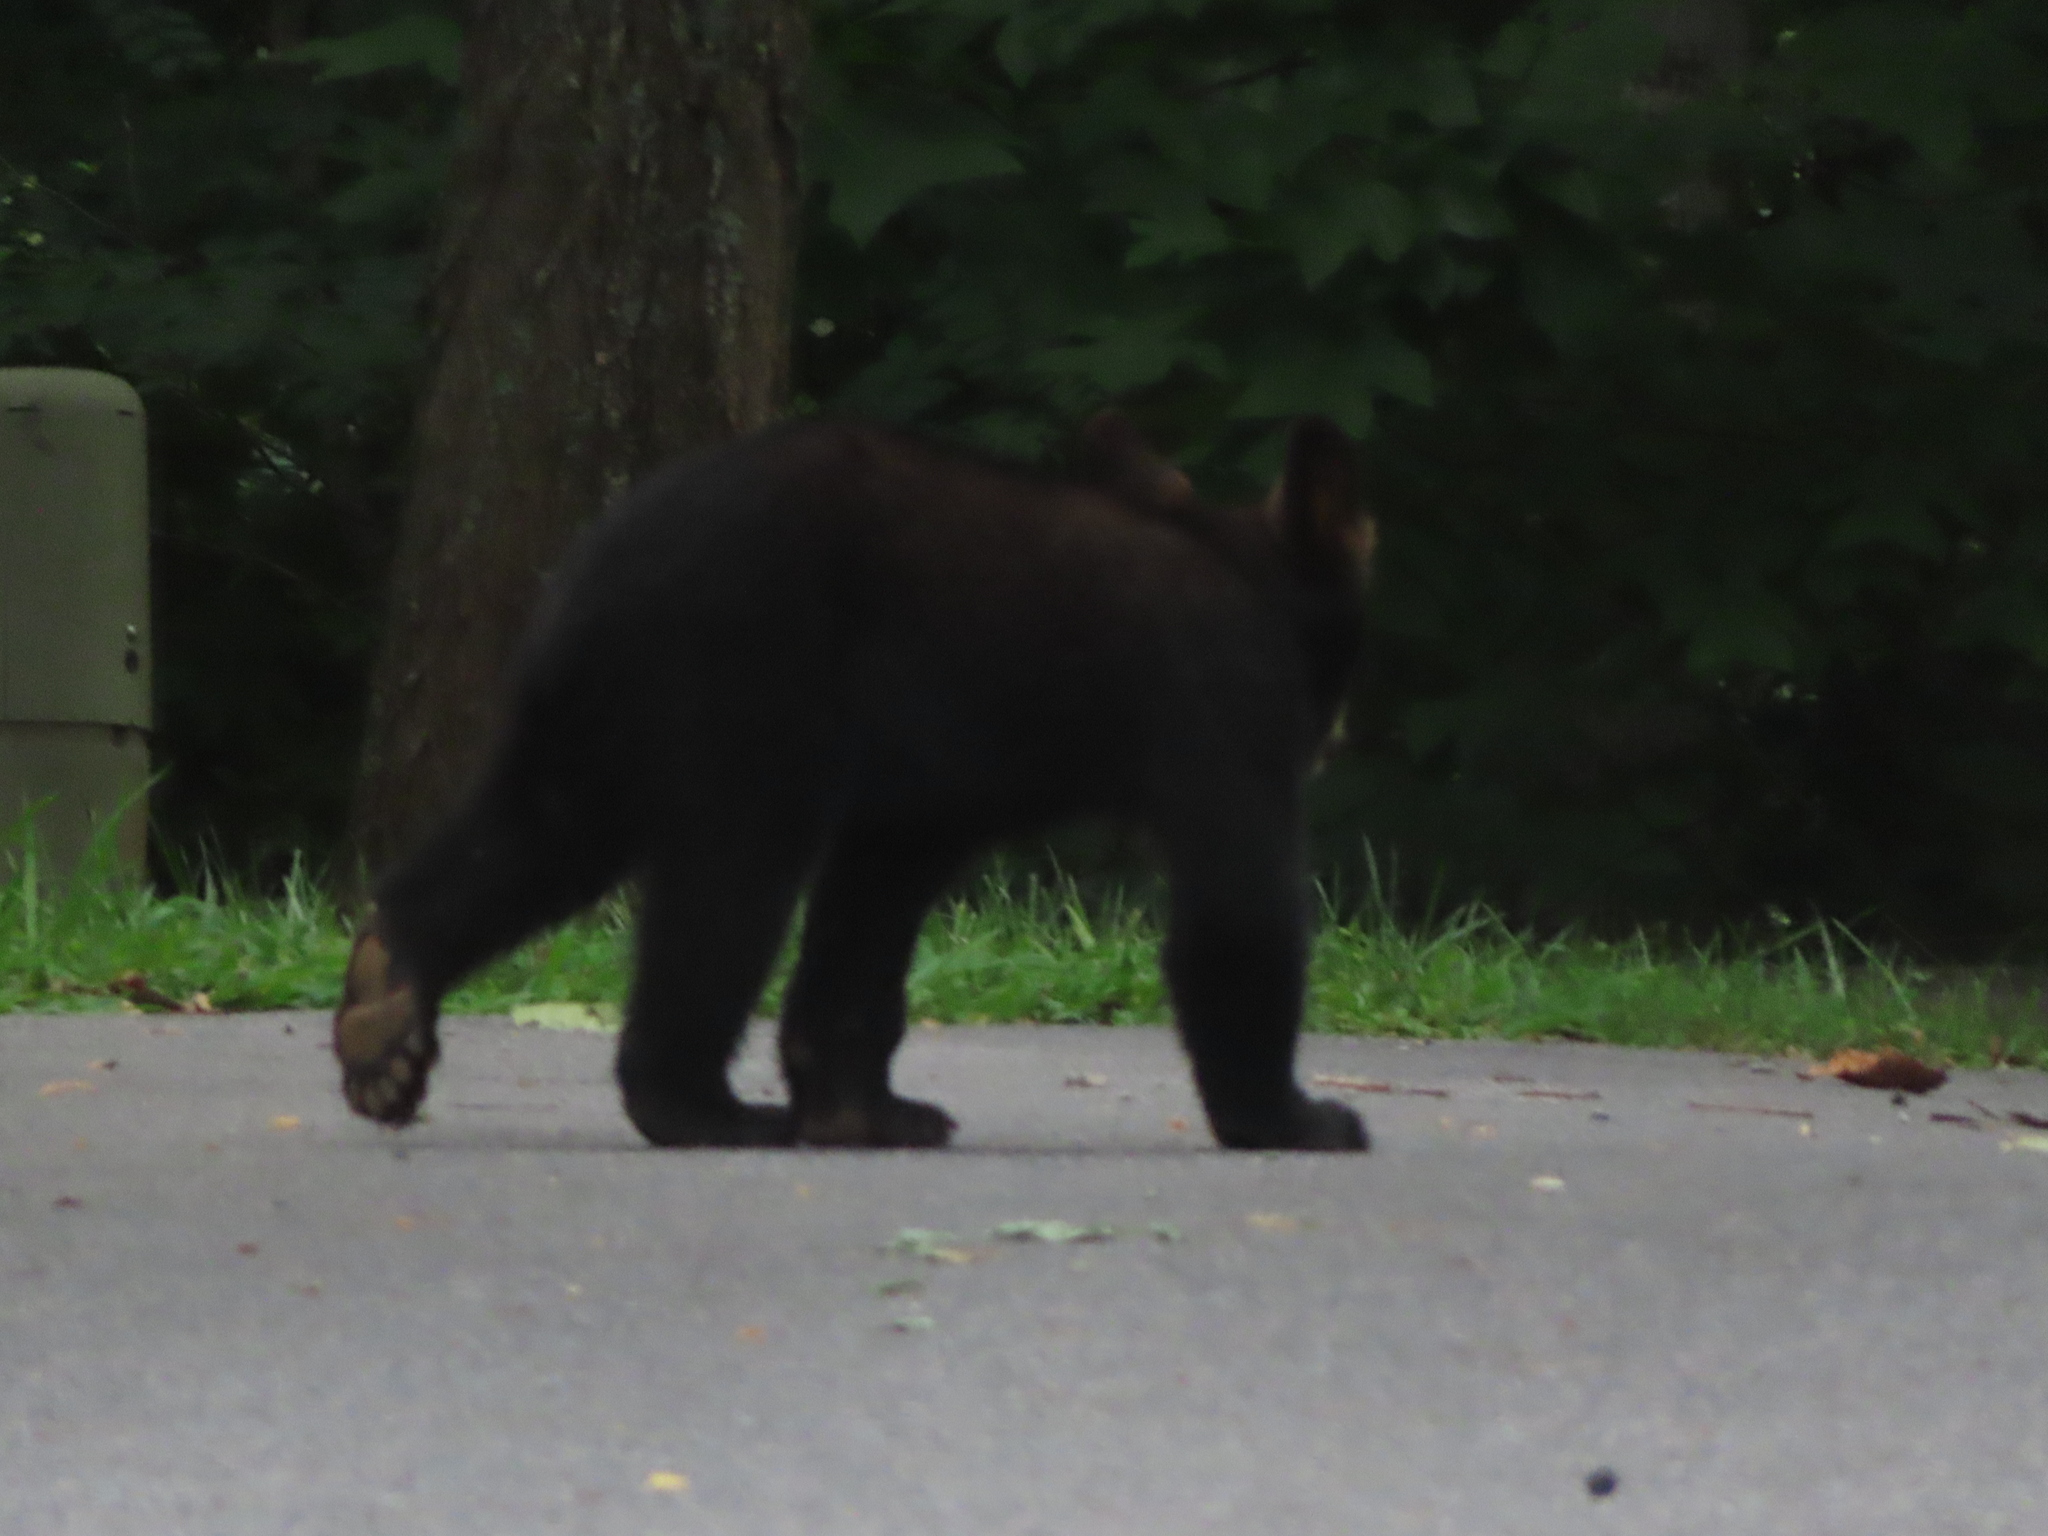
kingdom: Animalia
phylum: Chordata
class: Mammalia
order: Carnivora
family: Ursidae
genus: Ursus
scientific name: Ursus americanus
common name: American black bear
